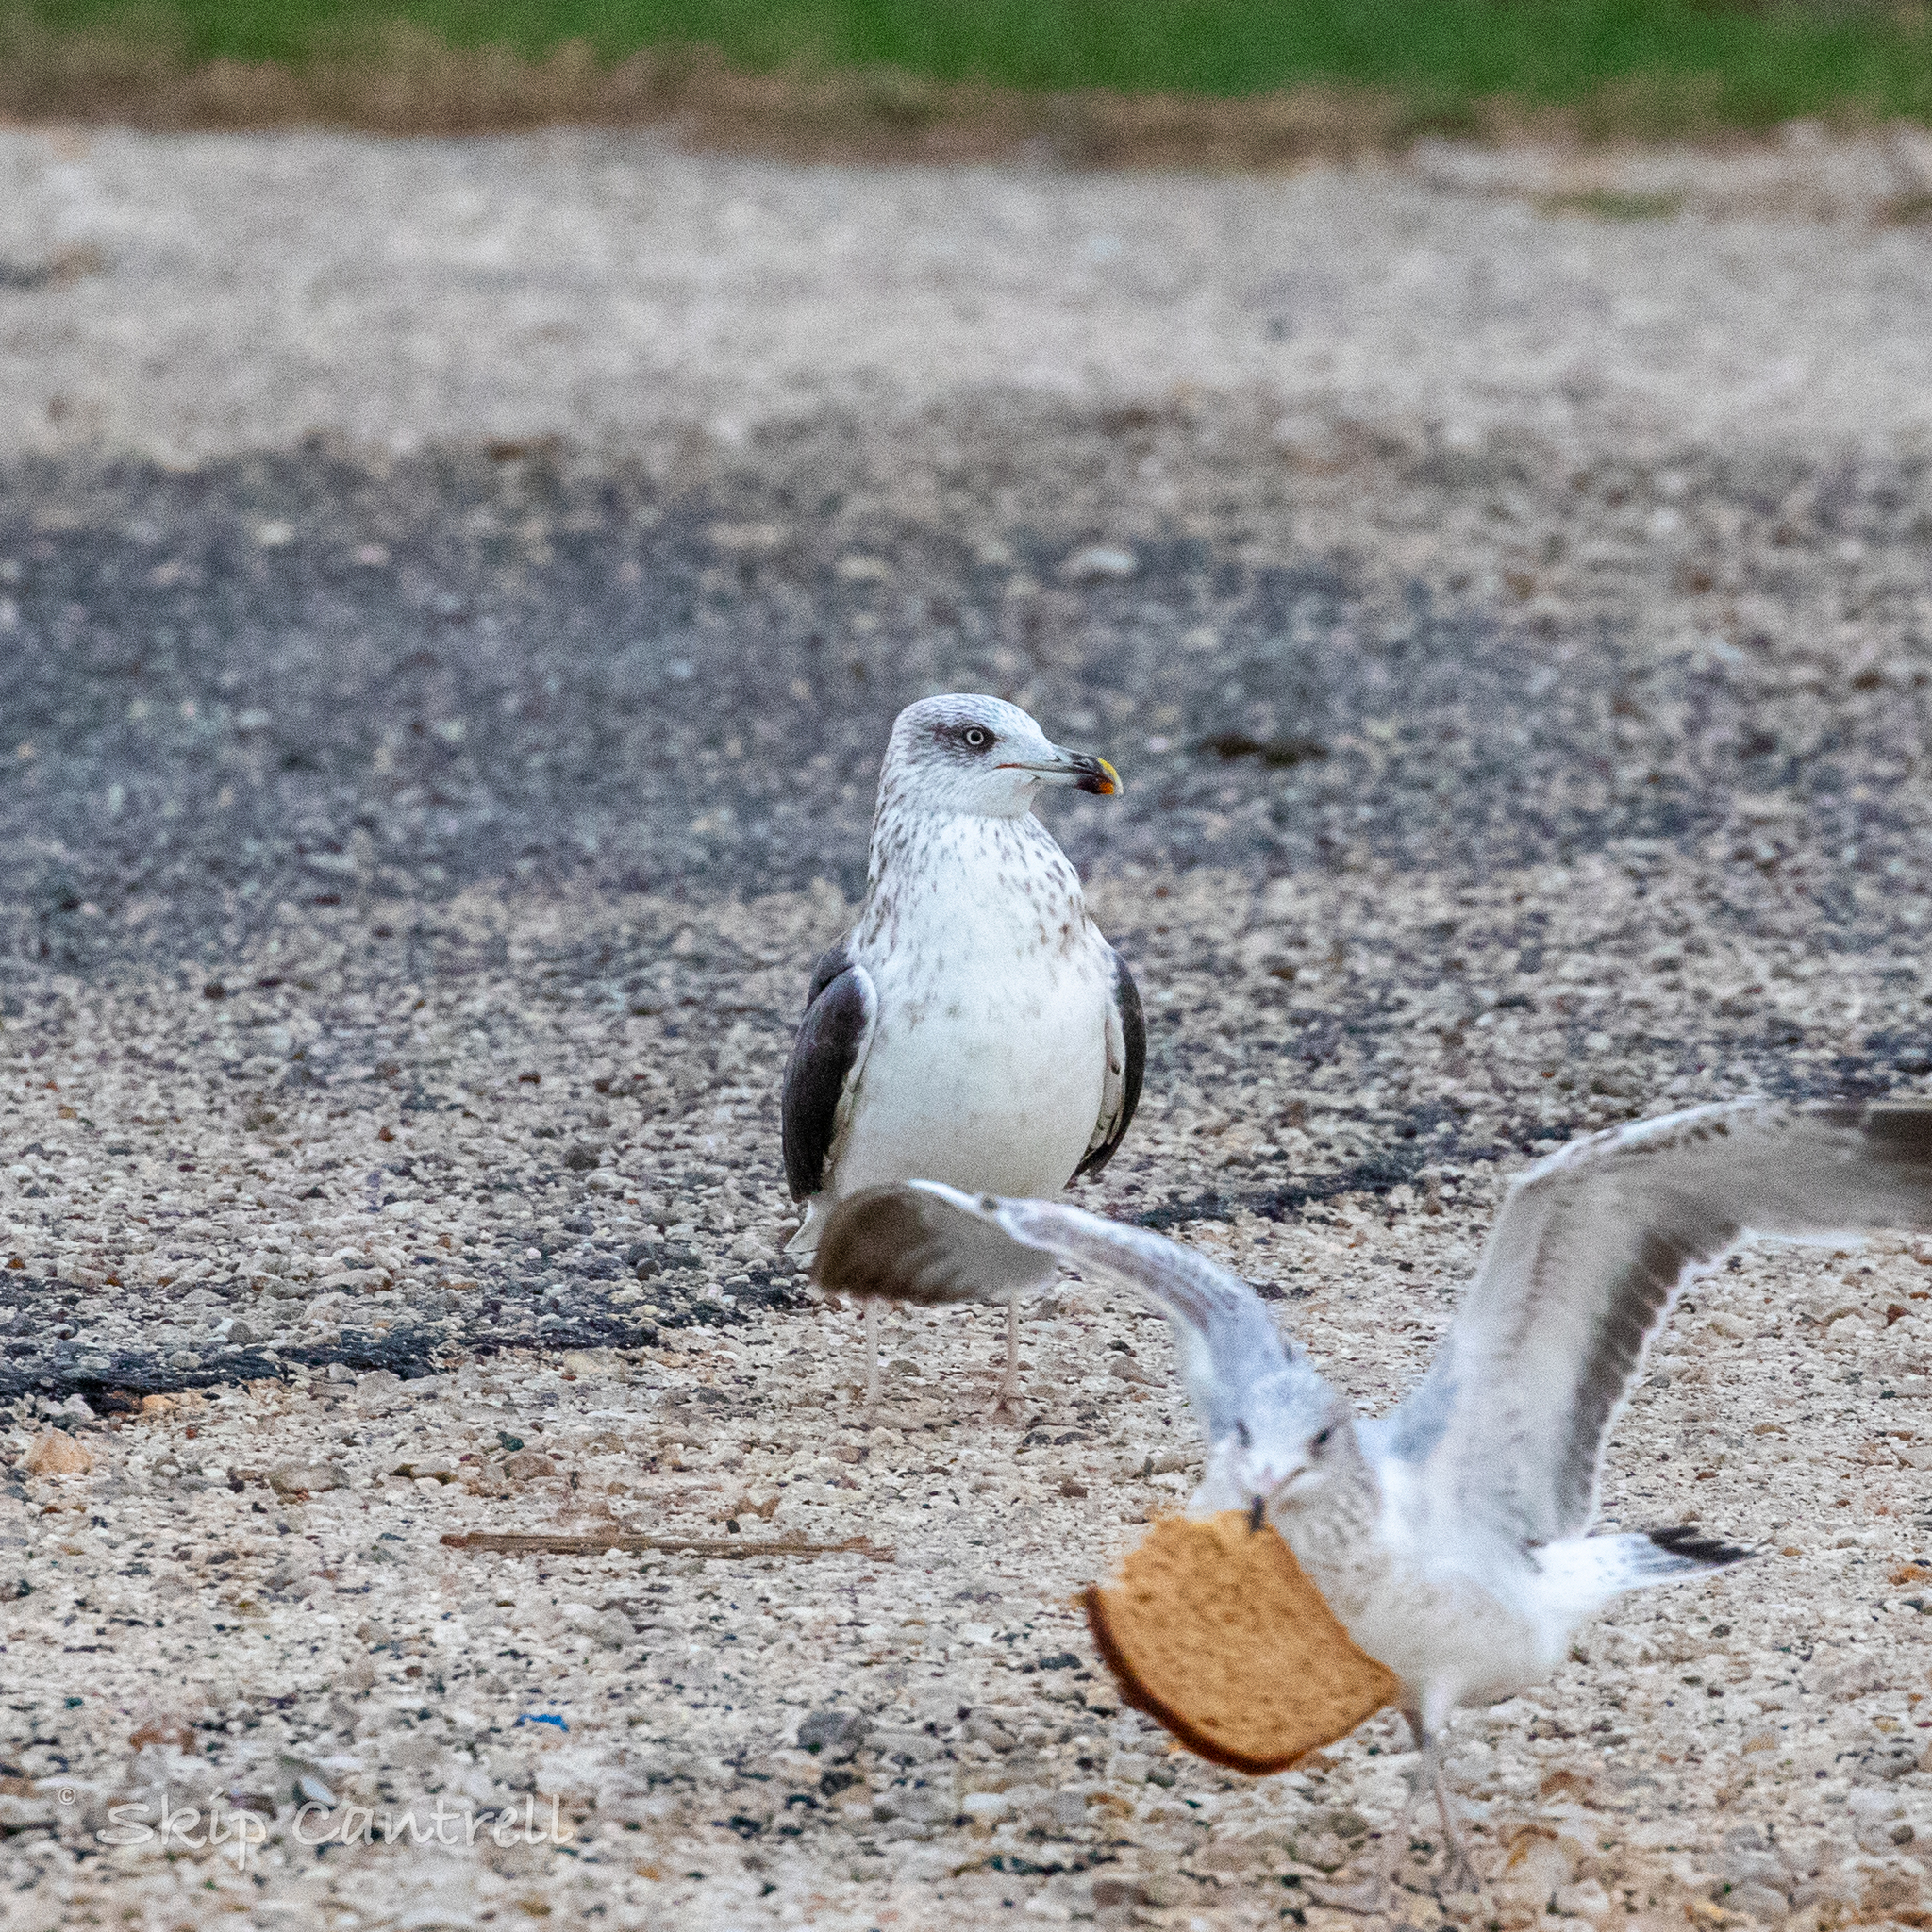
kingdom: Animalia
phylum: Chordata
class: Aves
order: Charadriiformes
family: Laridae
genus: Larus
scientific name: Larus fuscus
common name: Lesser black-backed gull
